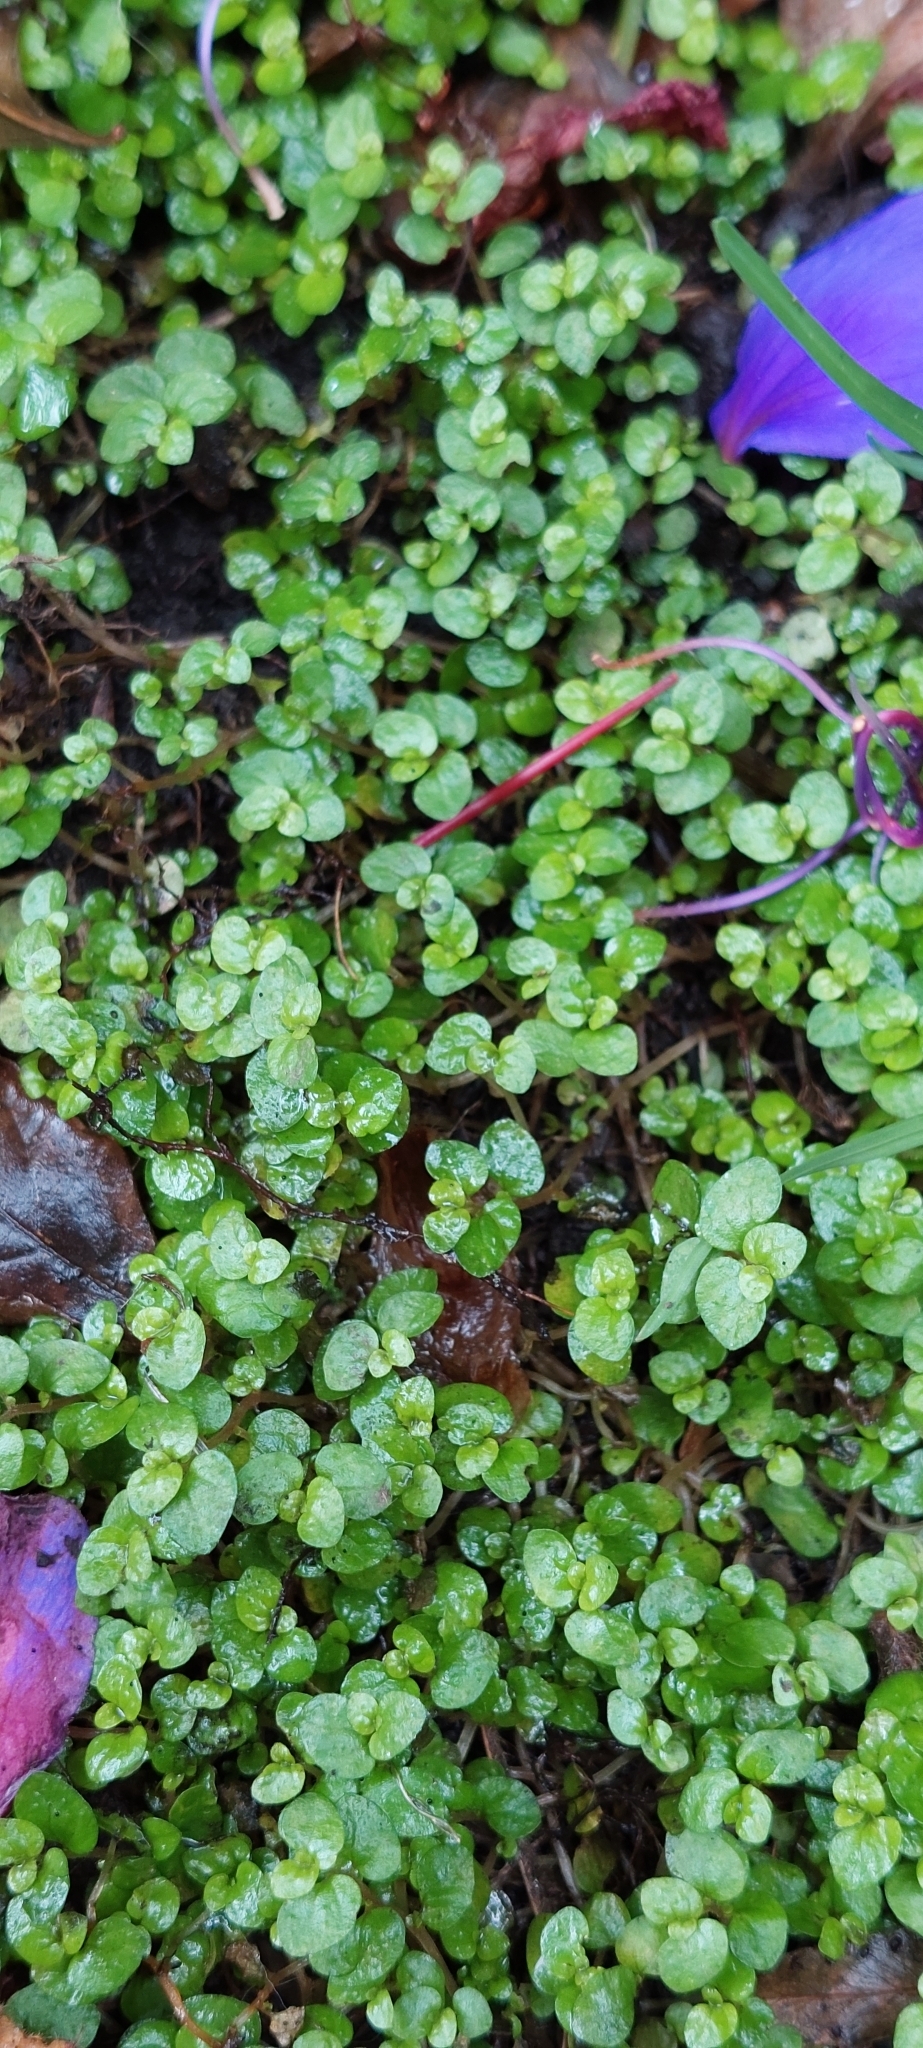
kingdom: Plantae
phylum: Tracheophyta
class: Magnoliopsida
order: Rosales
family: Urticaceae
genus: Soleirolia
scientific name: Soleirolia soleirolii
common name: Mind-your-own-business
